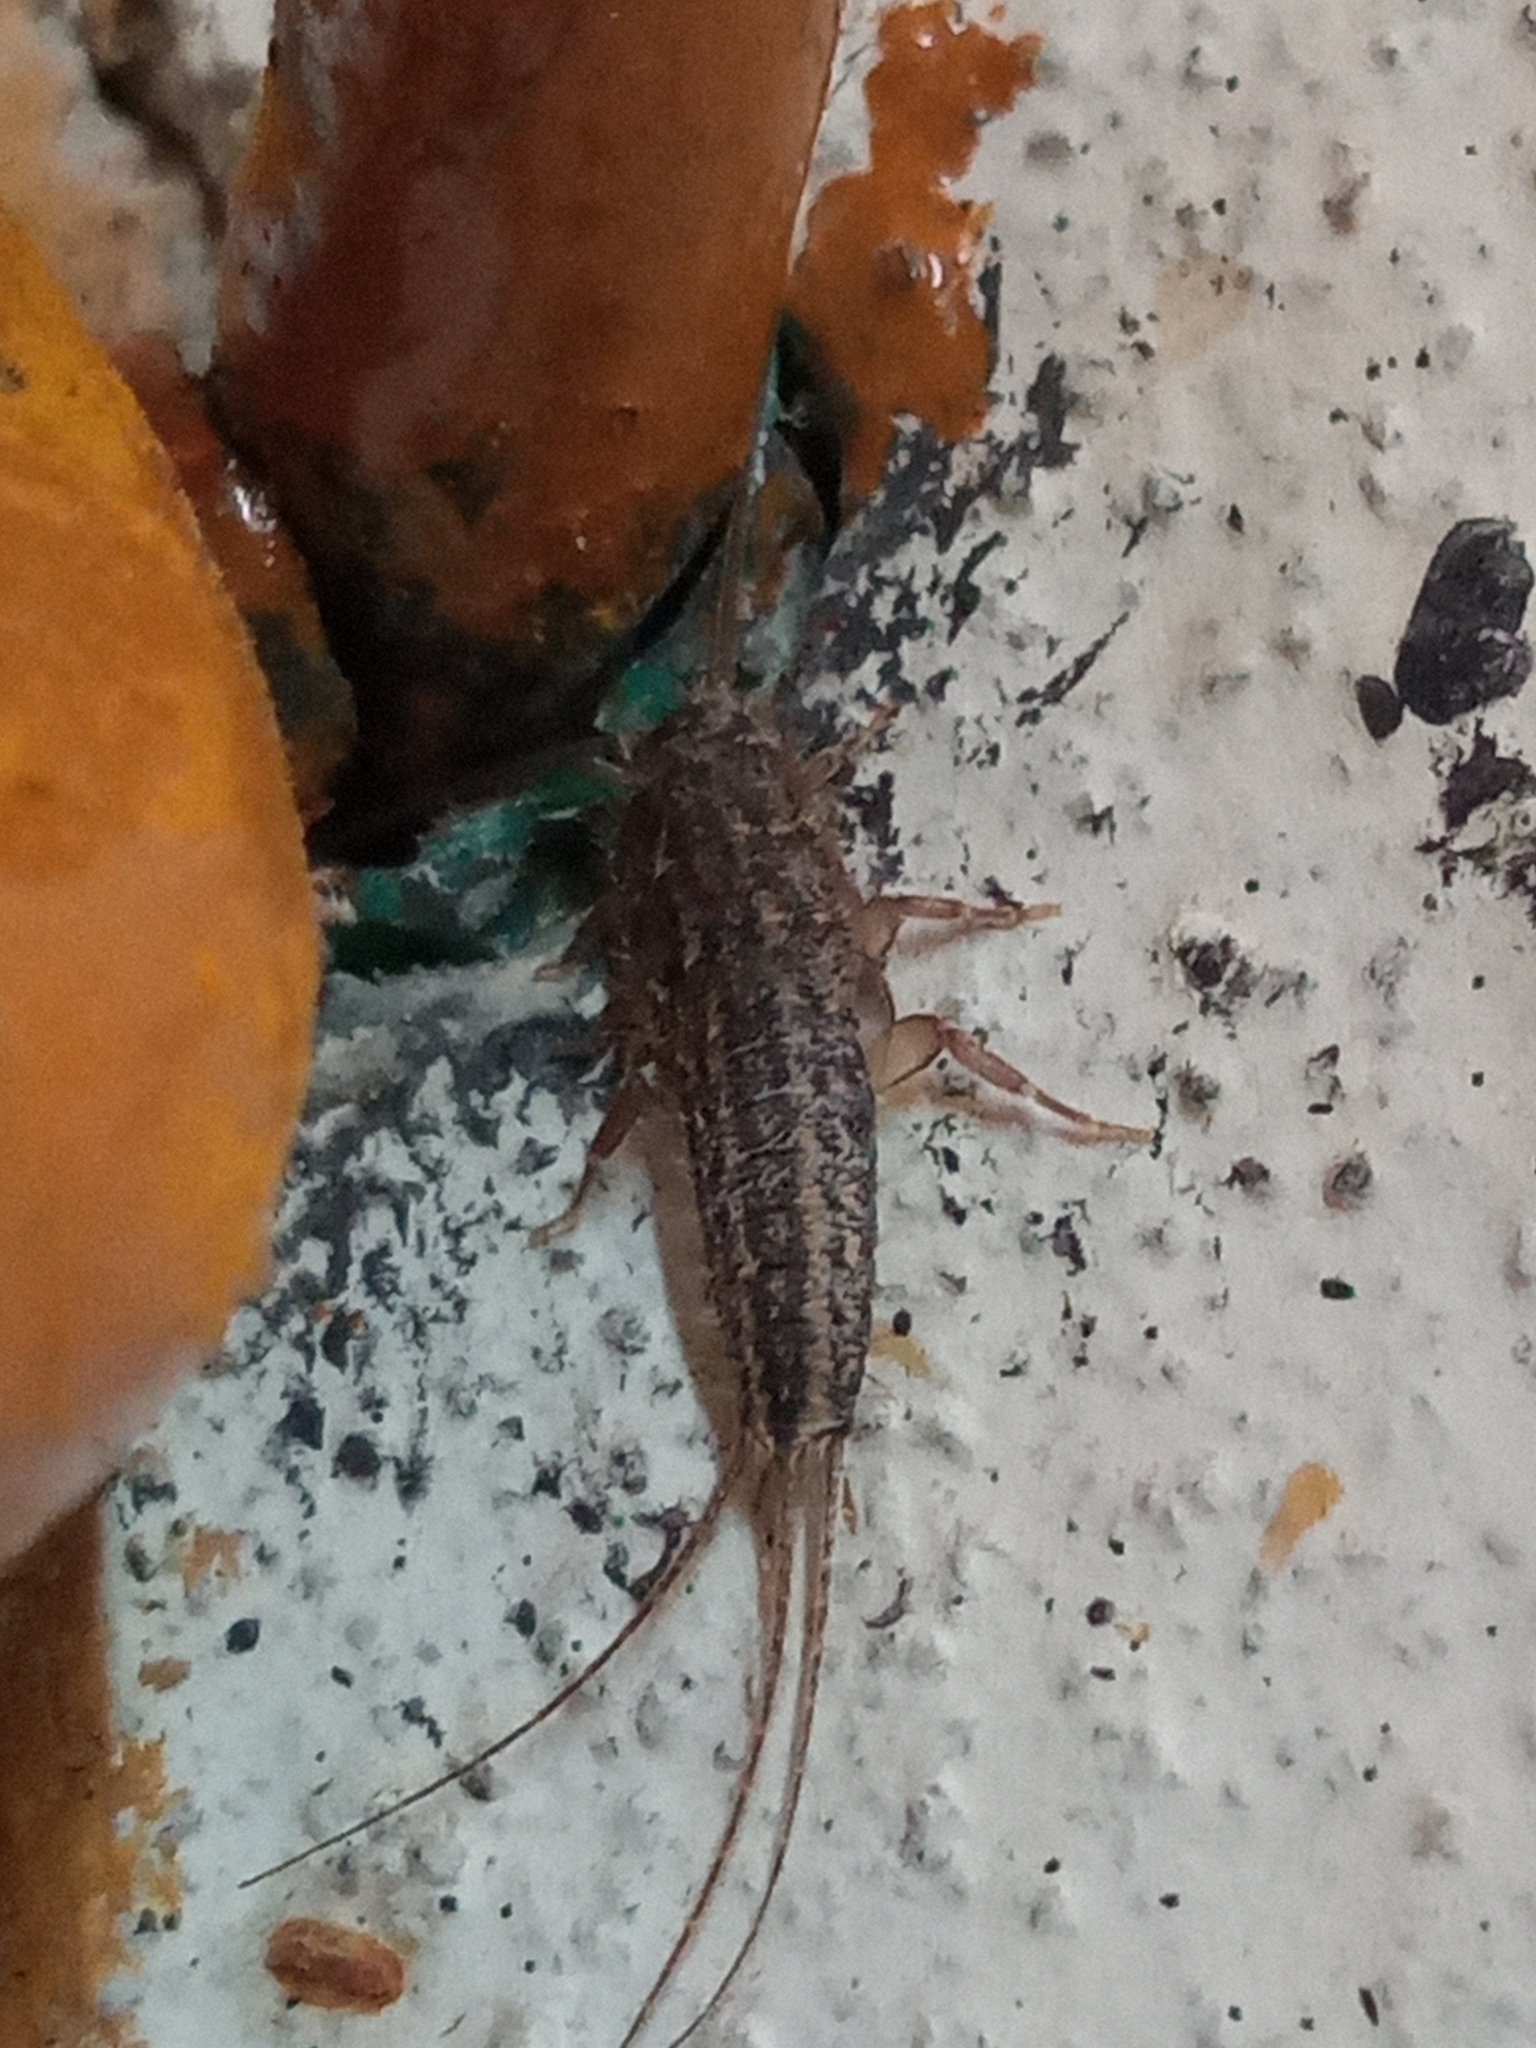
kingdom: Animalia
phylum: Arthropoda
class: Insecta
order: Zygentoma
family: Lepismatidae
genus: Ctenolepisma
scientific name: Ctenolepisma lineata
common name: Four-lined silverfish
